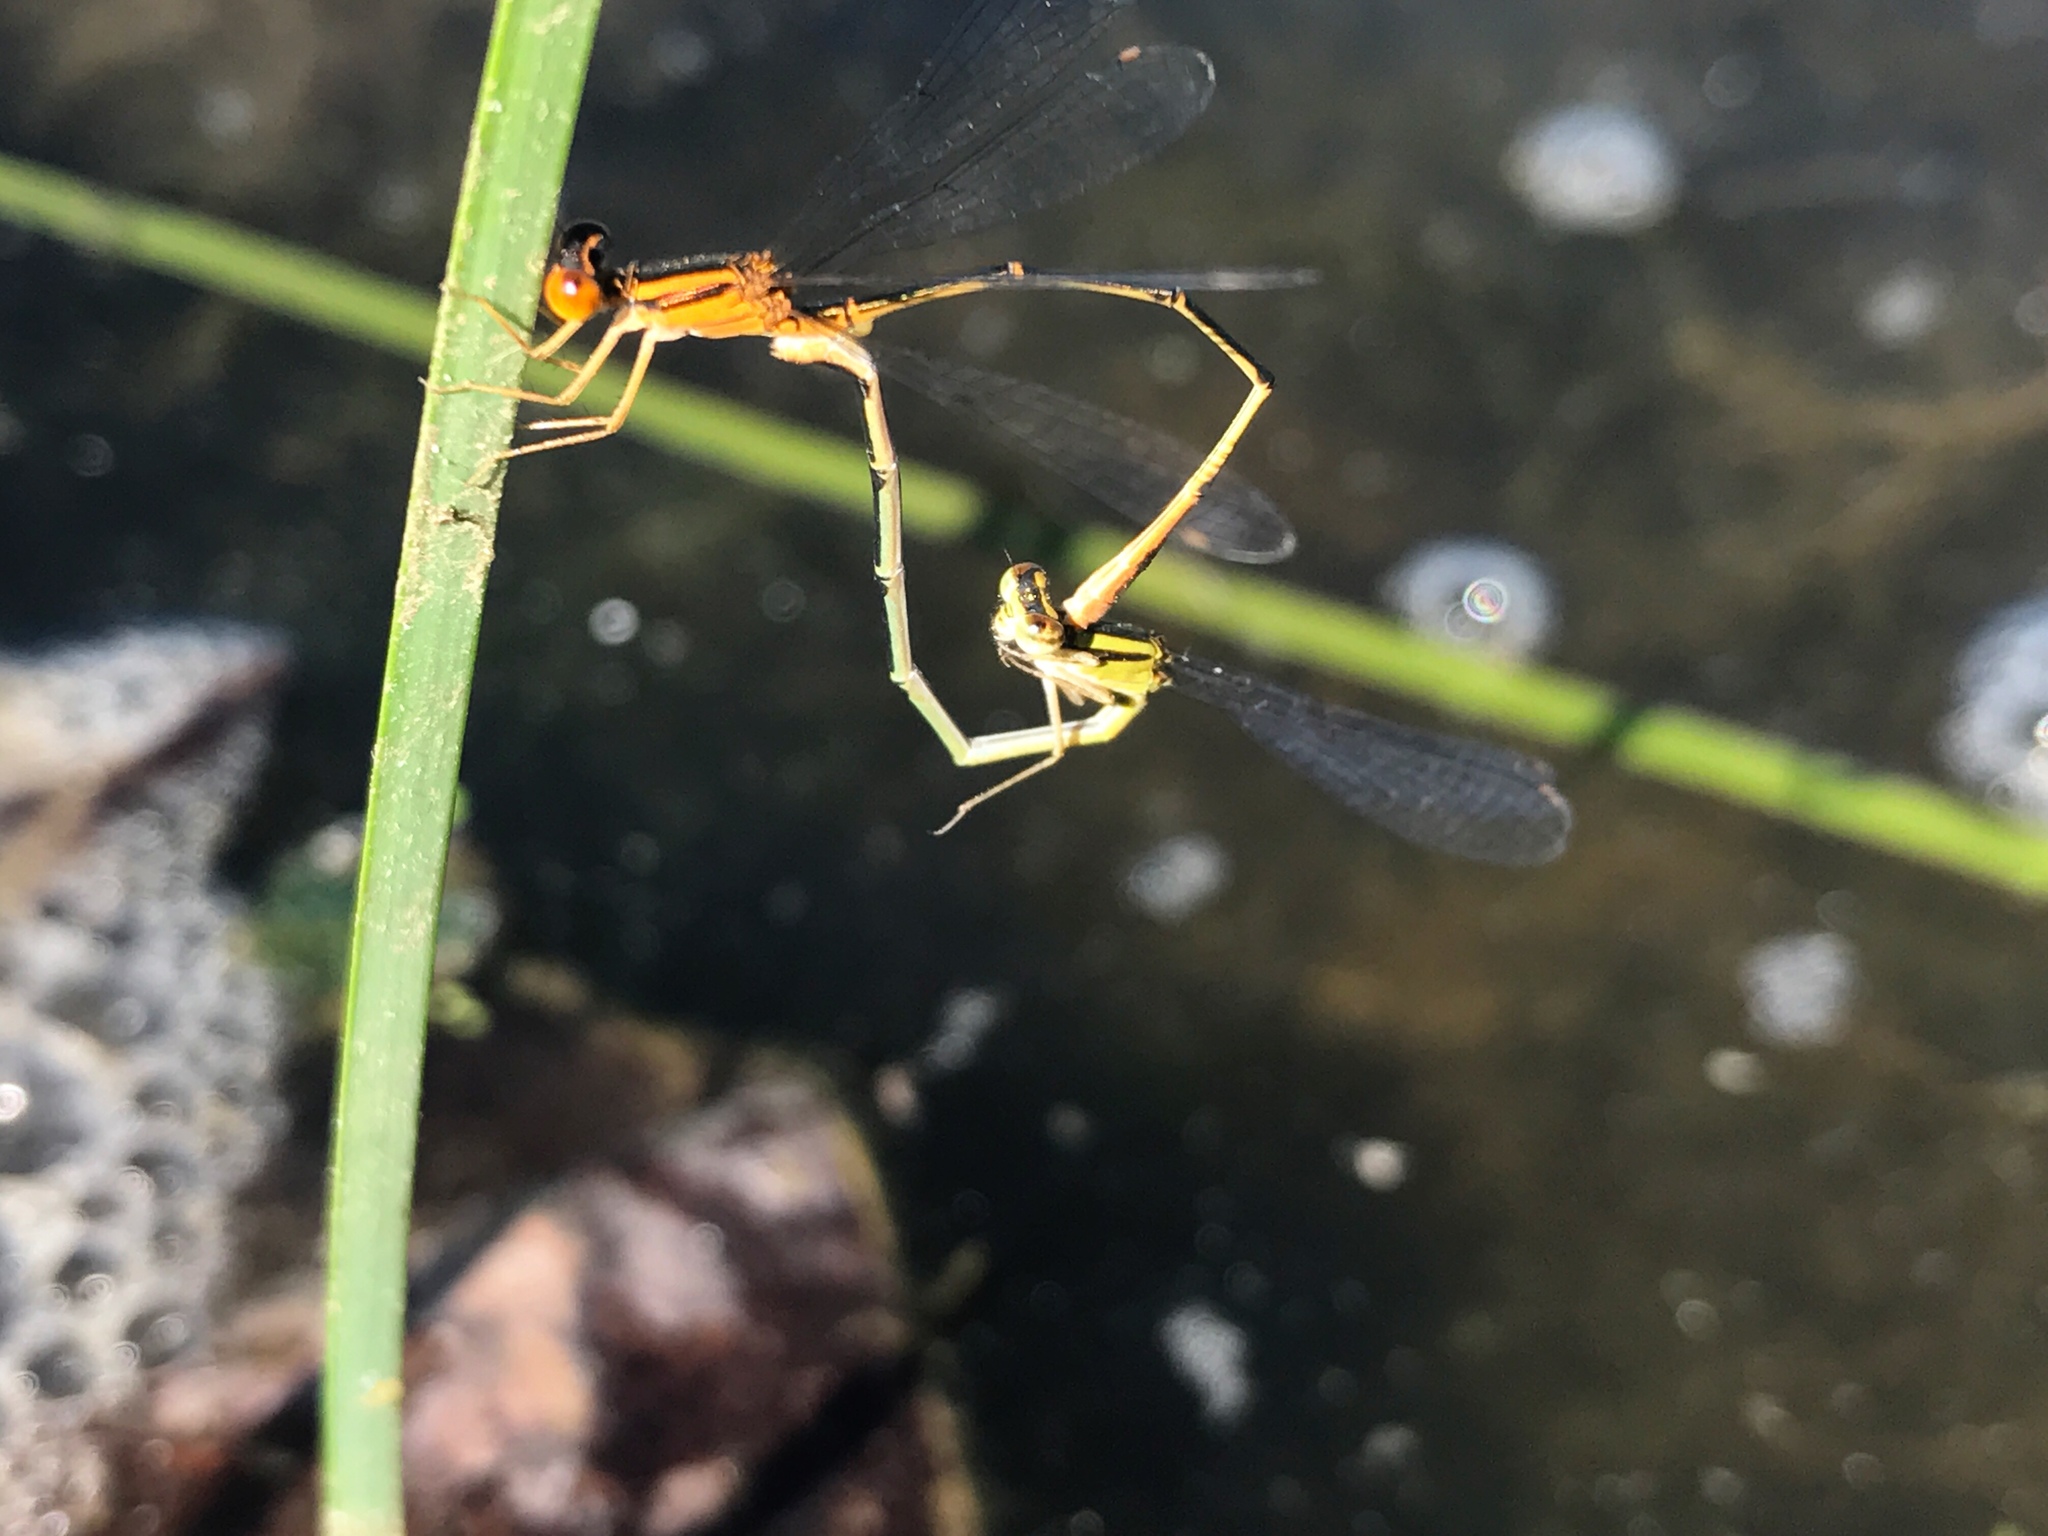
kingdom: Animalia
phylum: Arthropoda
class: Insecta
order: Odonata
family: Coenagrionidae
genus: Enallagma
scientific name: Enallagma signatum
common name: Orange bluet
